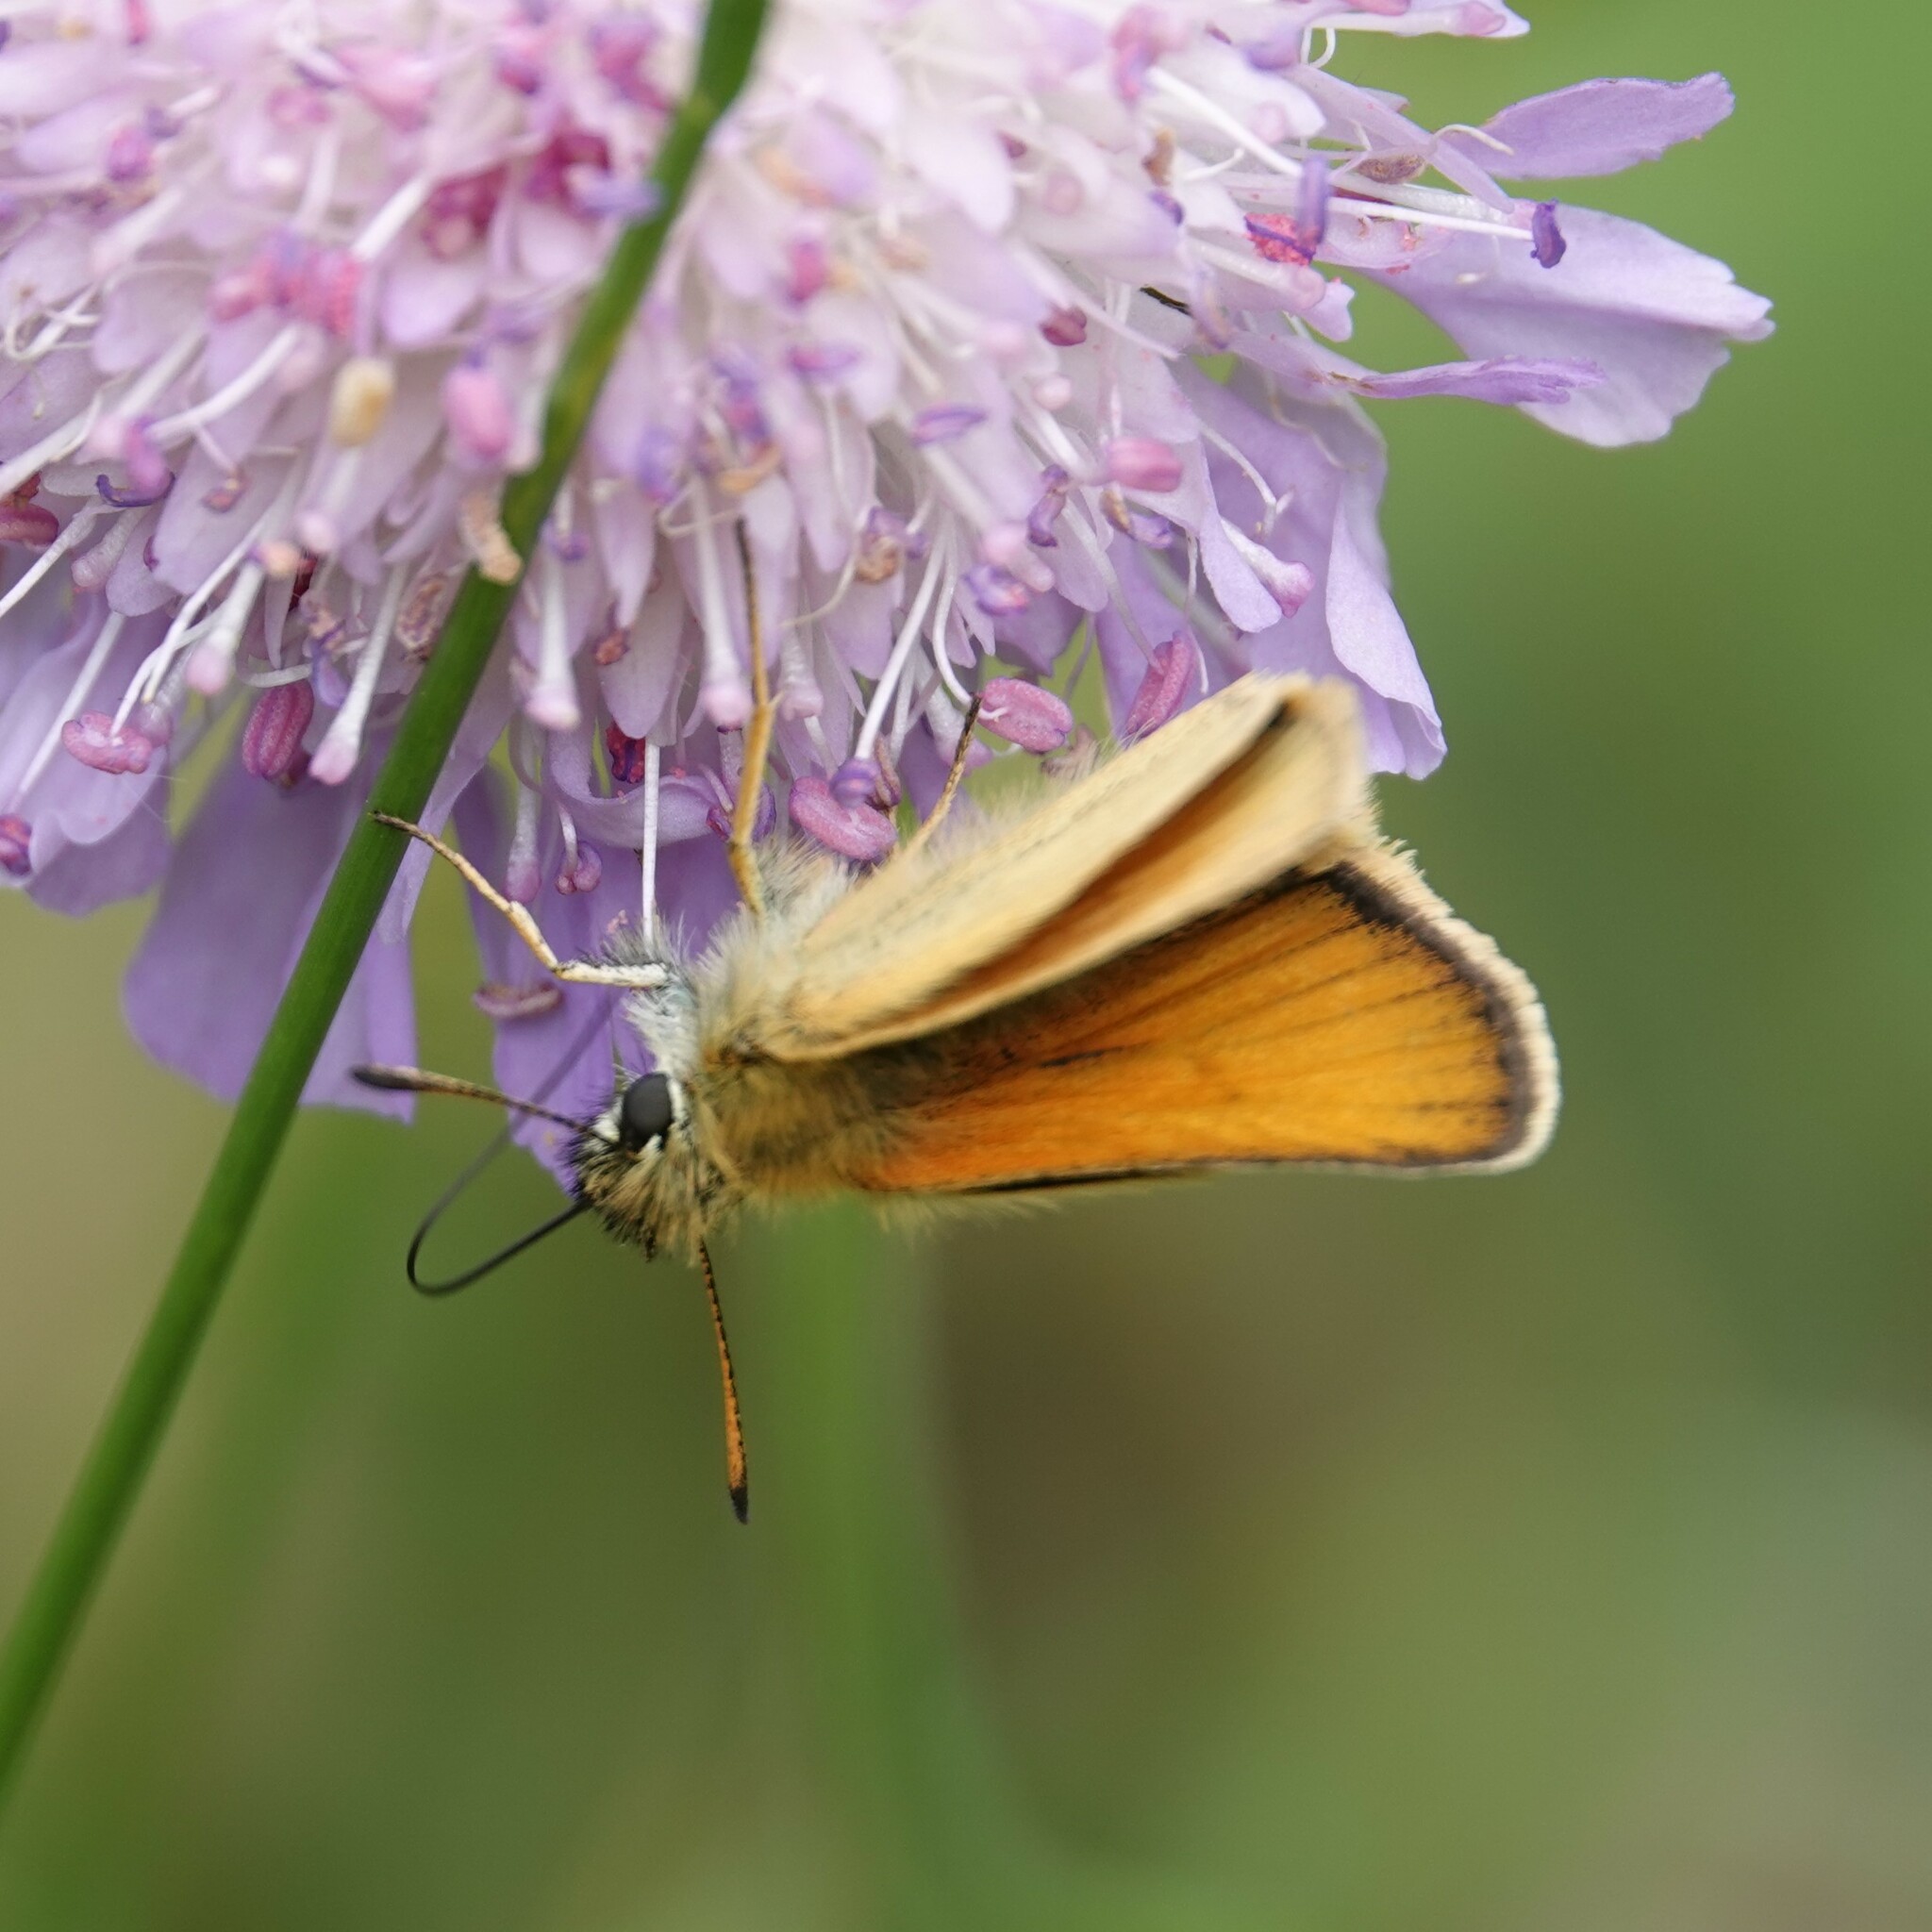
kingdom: Animalia
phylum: Arthropoda
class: Insecta
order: Lepidoptera
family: Hesperiidae
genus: Thymelicus
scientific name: Thymelicus lineola
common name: Essex skipper
